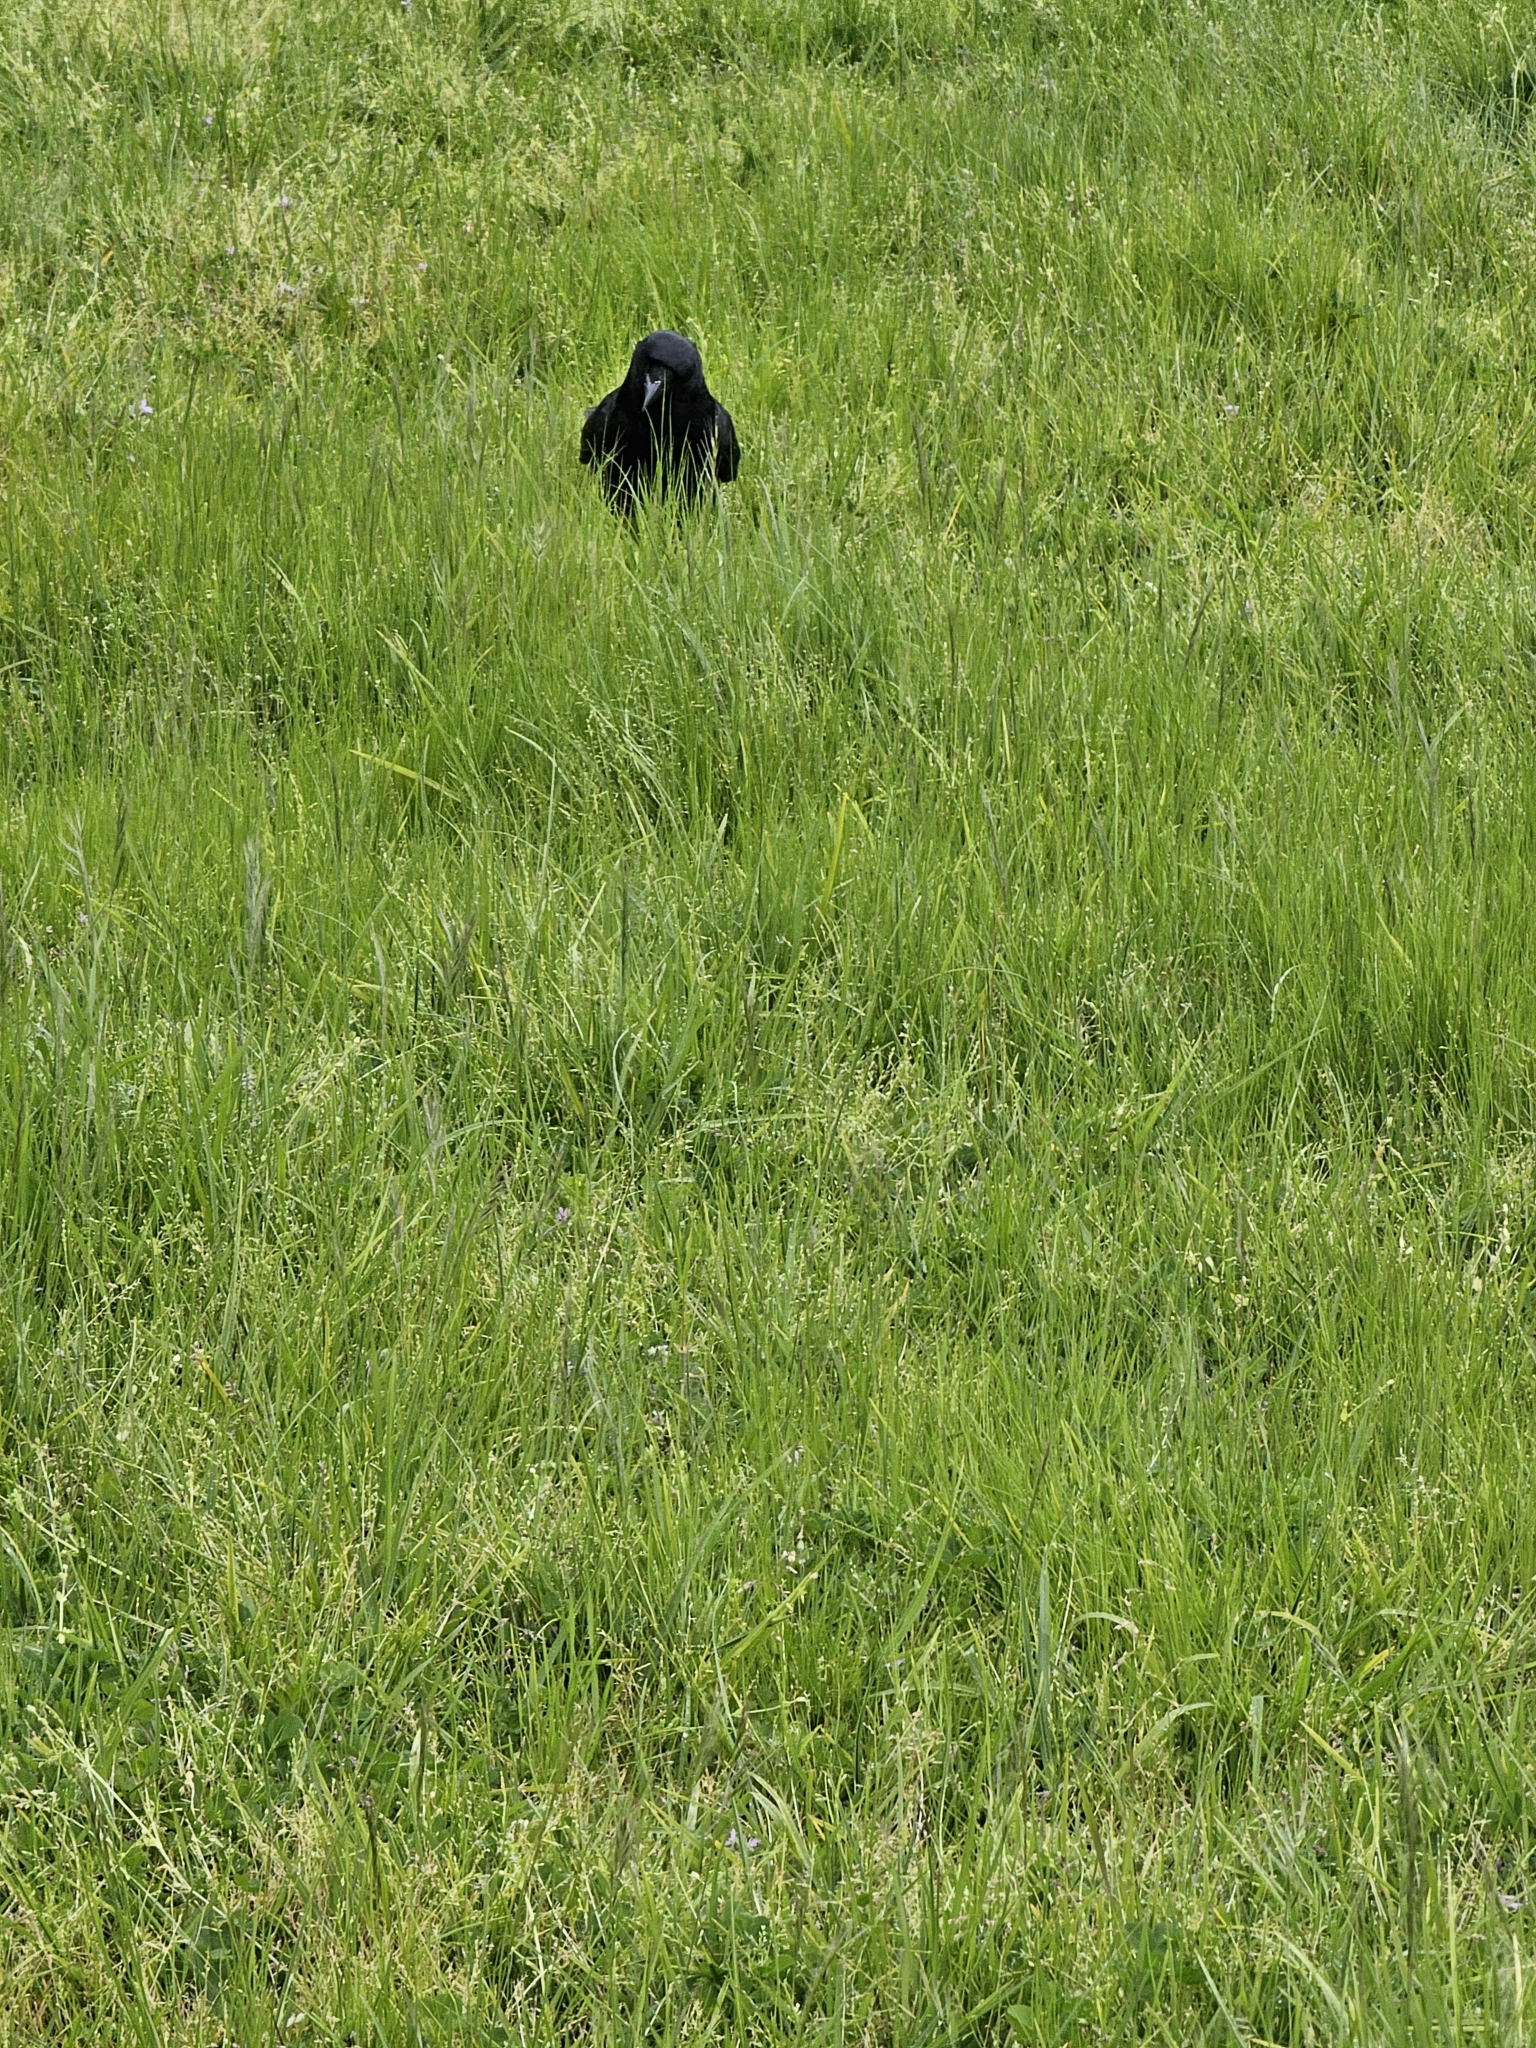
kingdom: Animalia
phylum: Chordata
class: Aves
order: Passeriformes
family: Corvidae
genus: Corvus
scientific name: Corvus brachyrhynchos
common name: American crow
